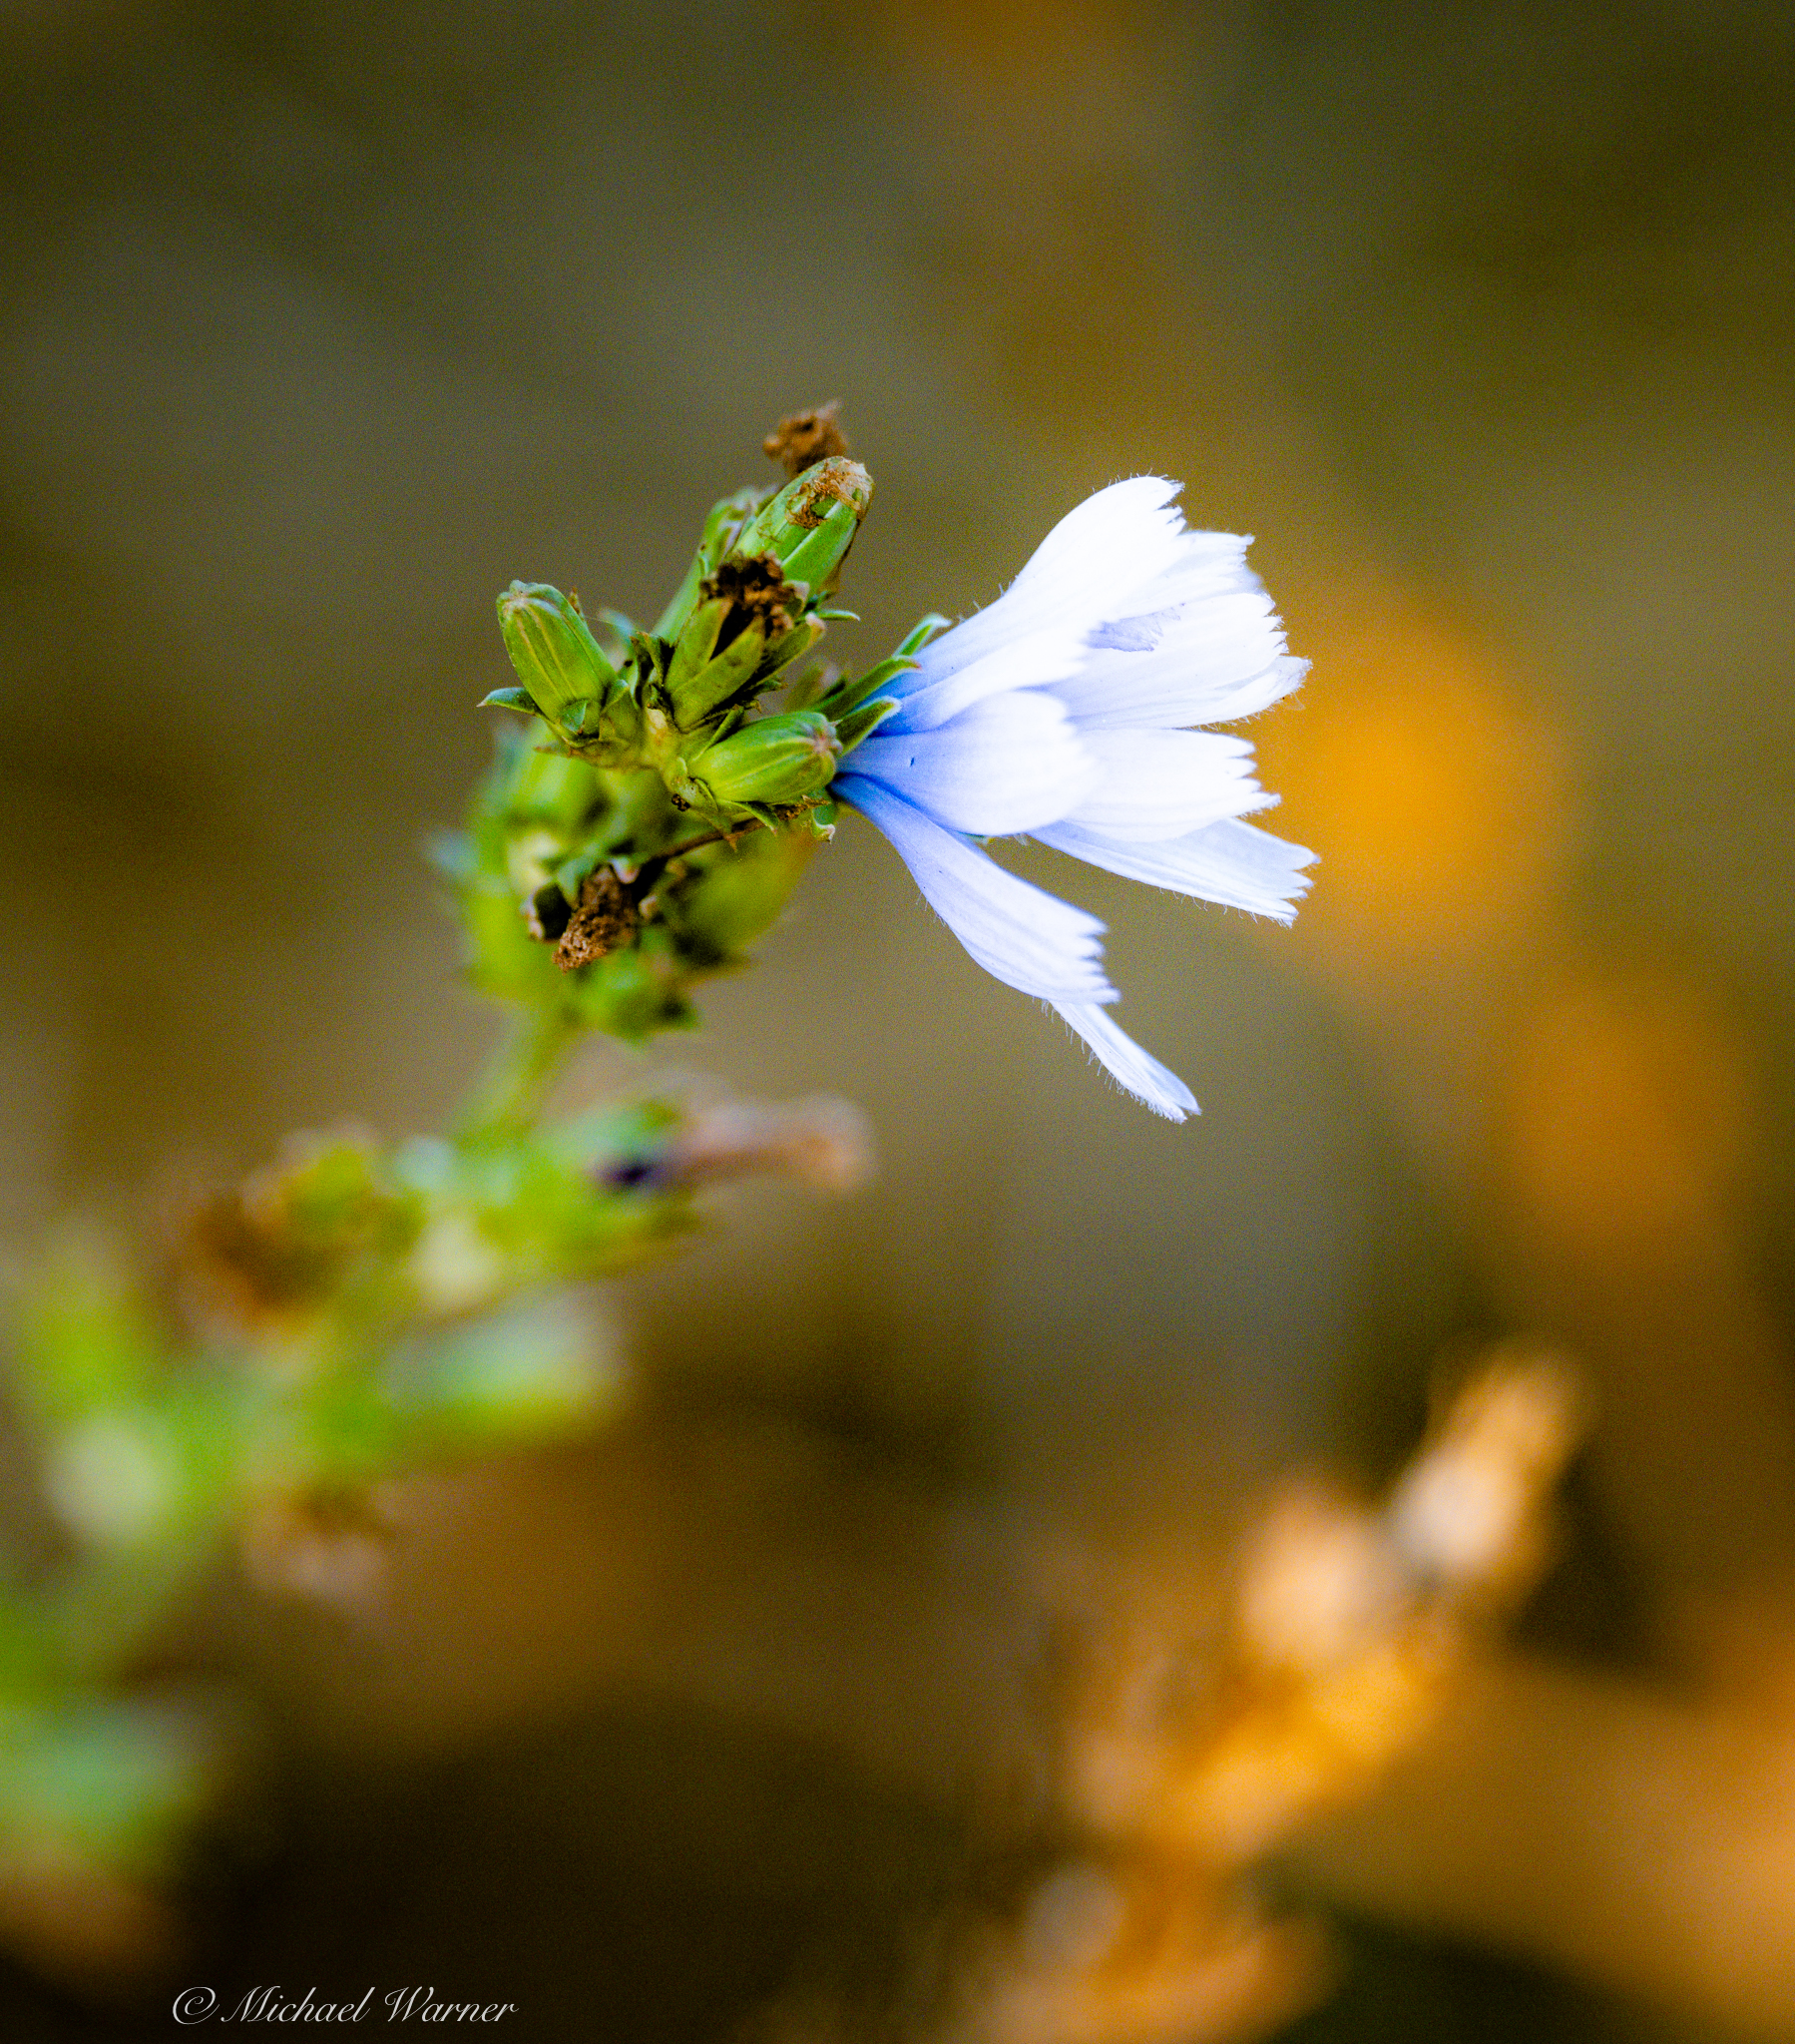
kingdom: Plantae
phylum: Tracheophyta
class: Magnoliopsida
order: Asterales
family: Asteraceae
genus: Cichorium
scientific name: Cichorium intybus
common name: Chicory
